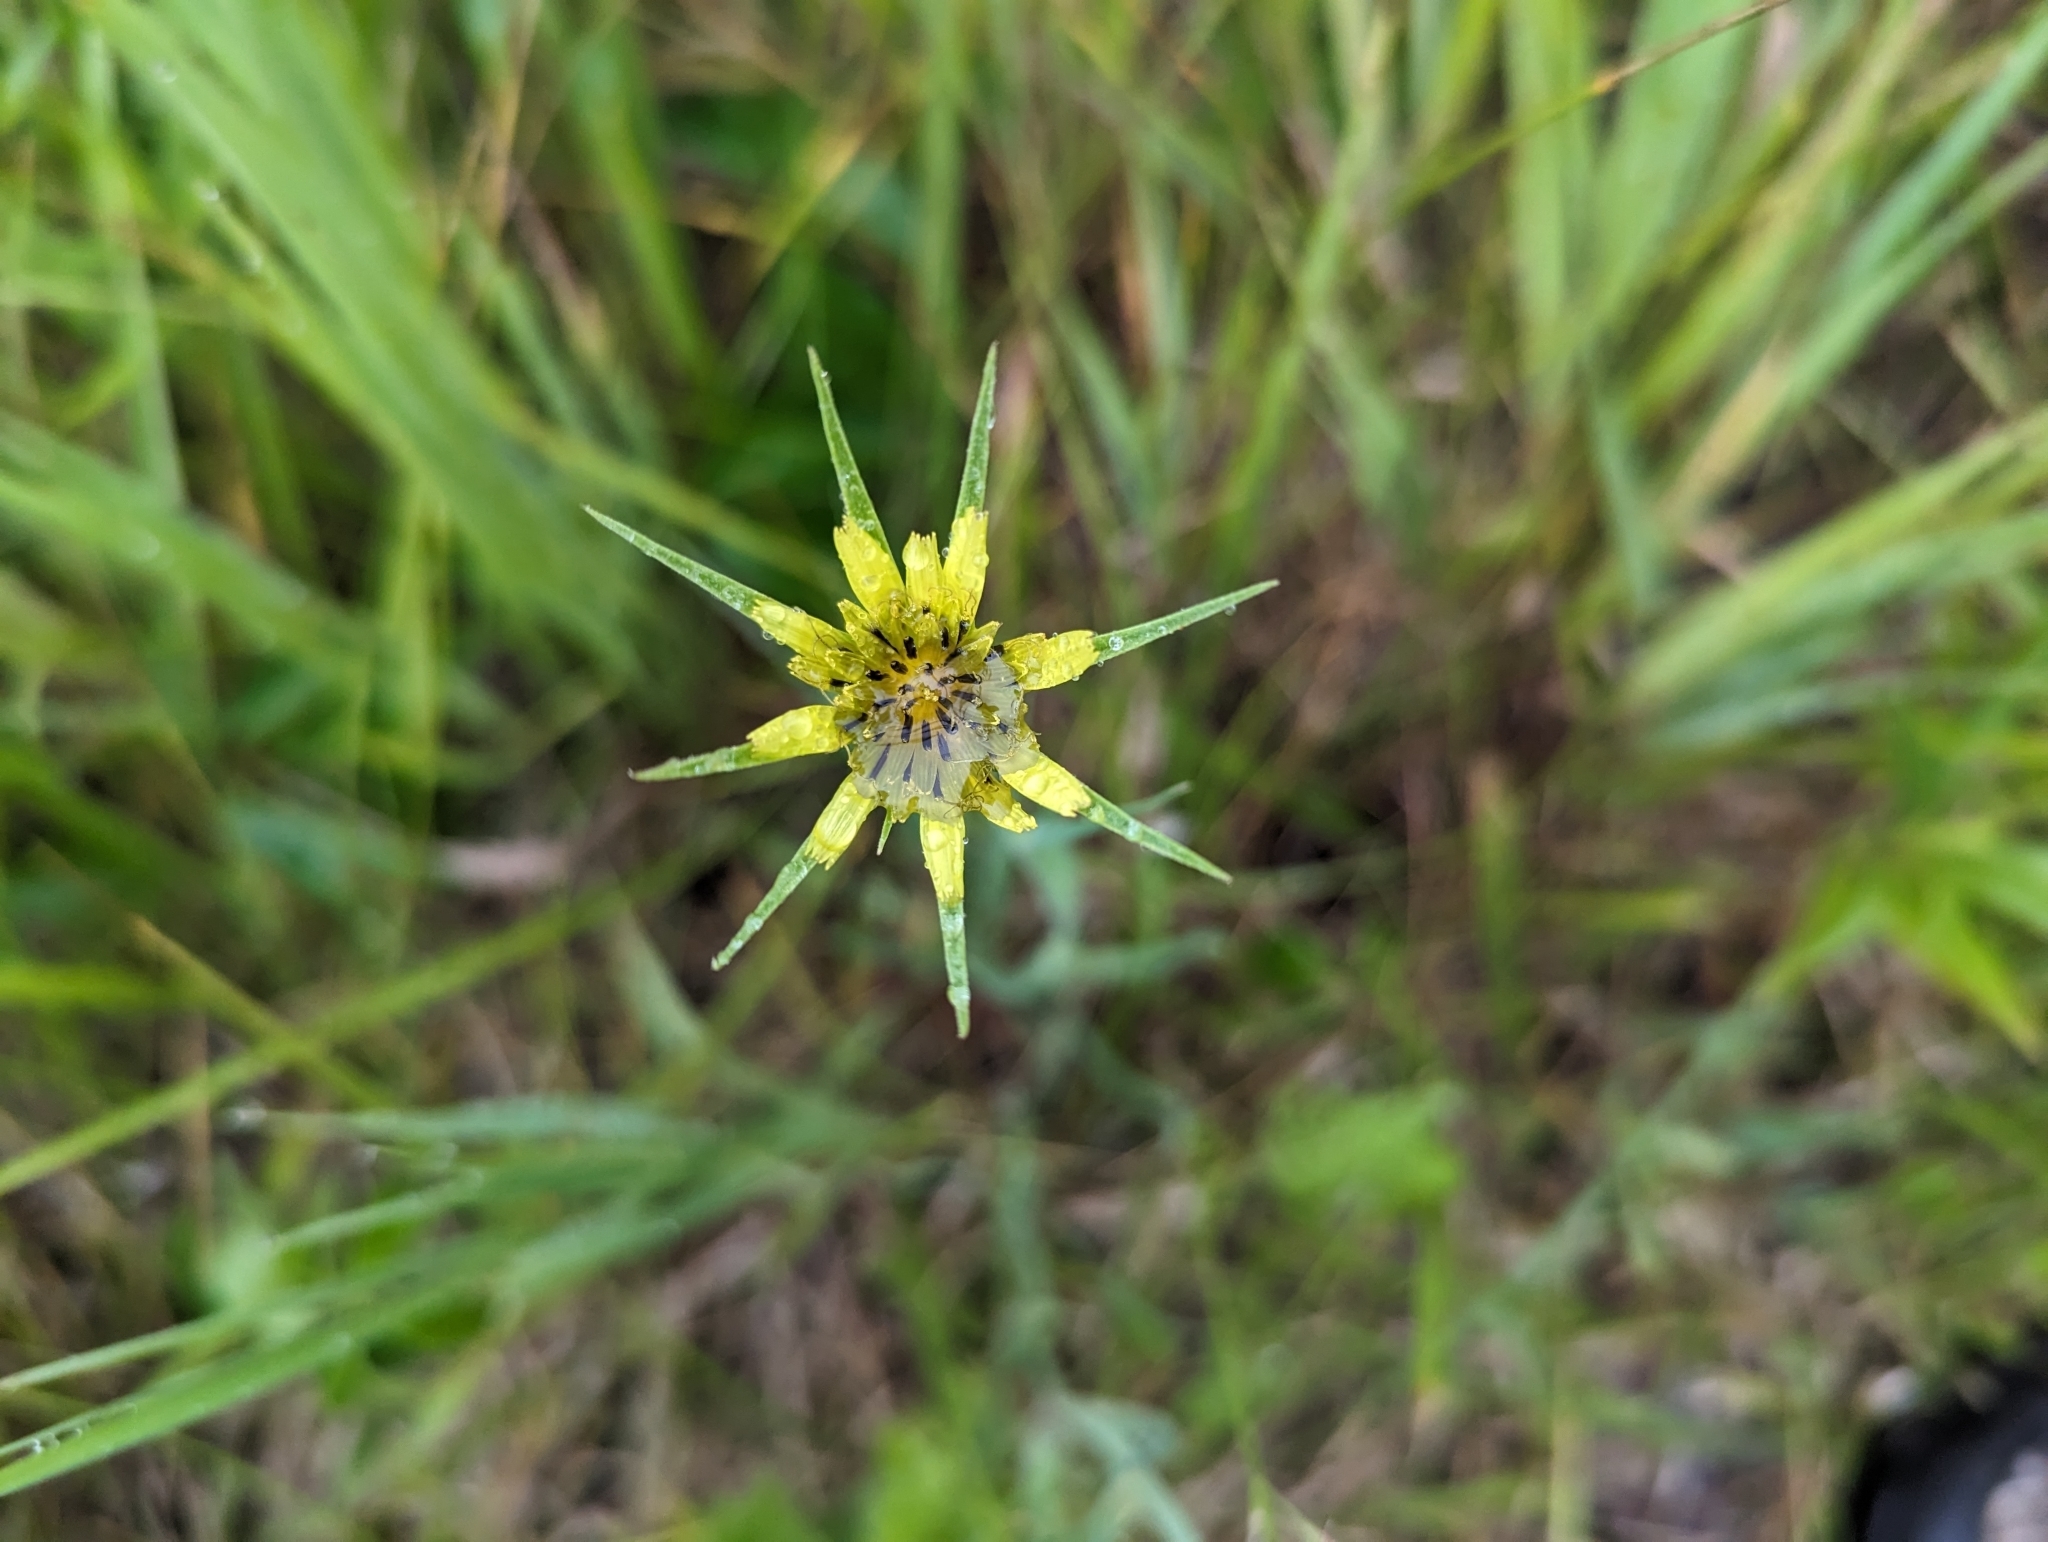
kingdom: Plantae
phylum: Tracheophyta
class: Magnoliopsida
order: Asterales
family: Asteraceae
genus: Tragopogon
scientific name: Tragopogon dubius
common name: Yellow salsify
